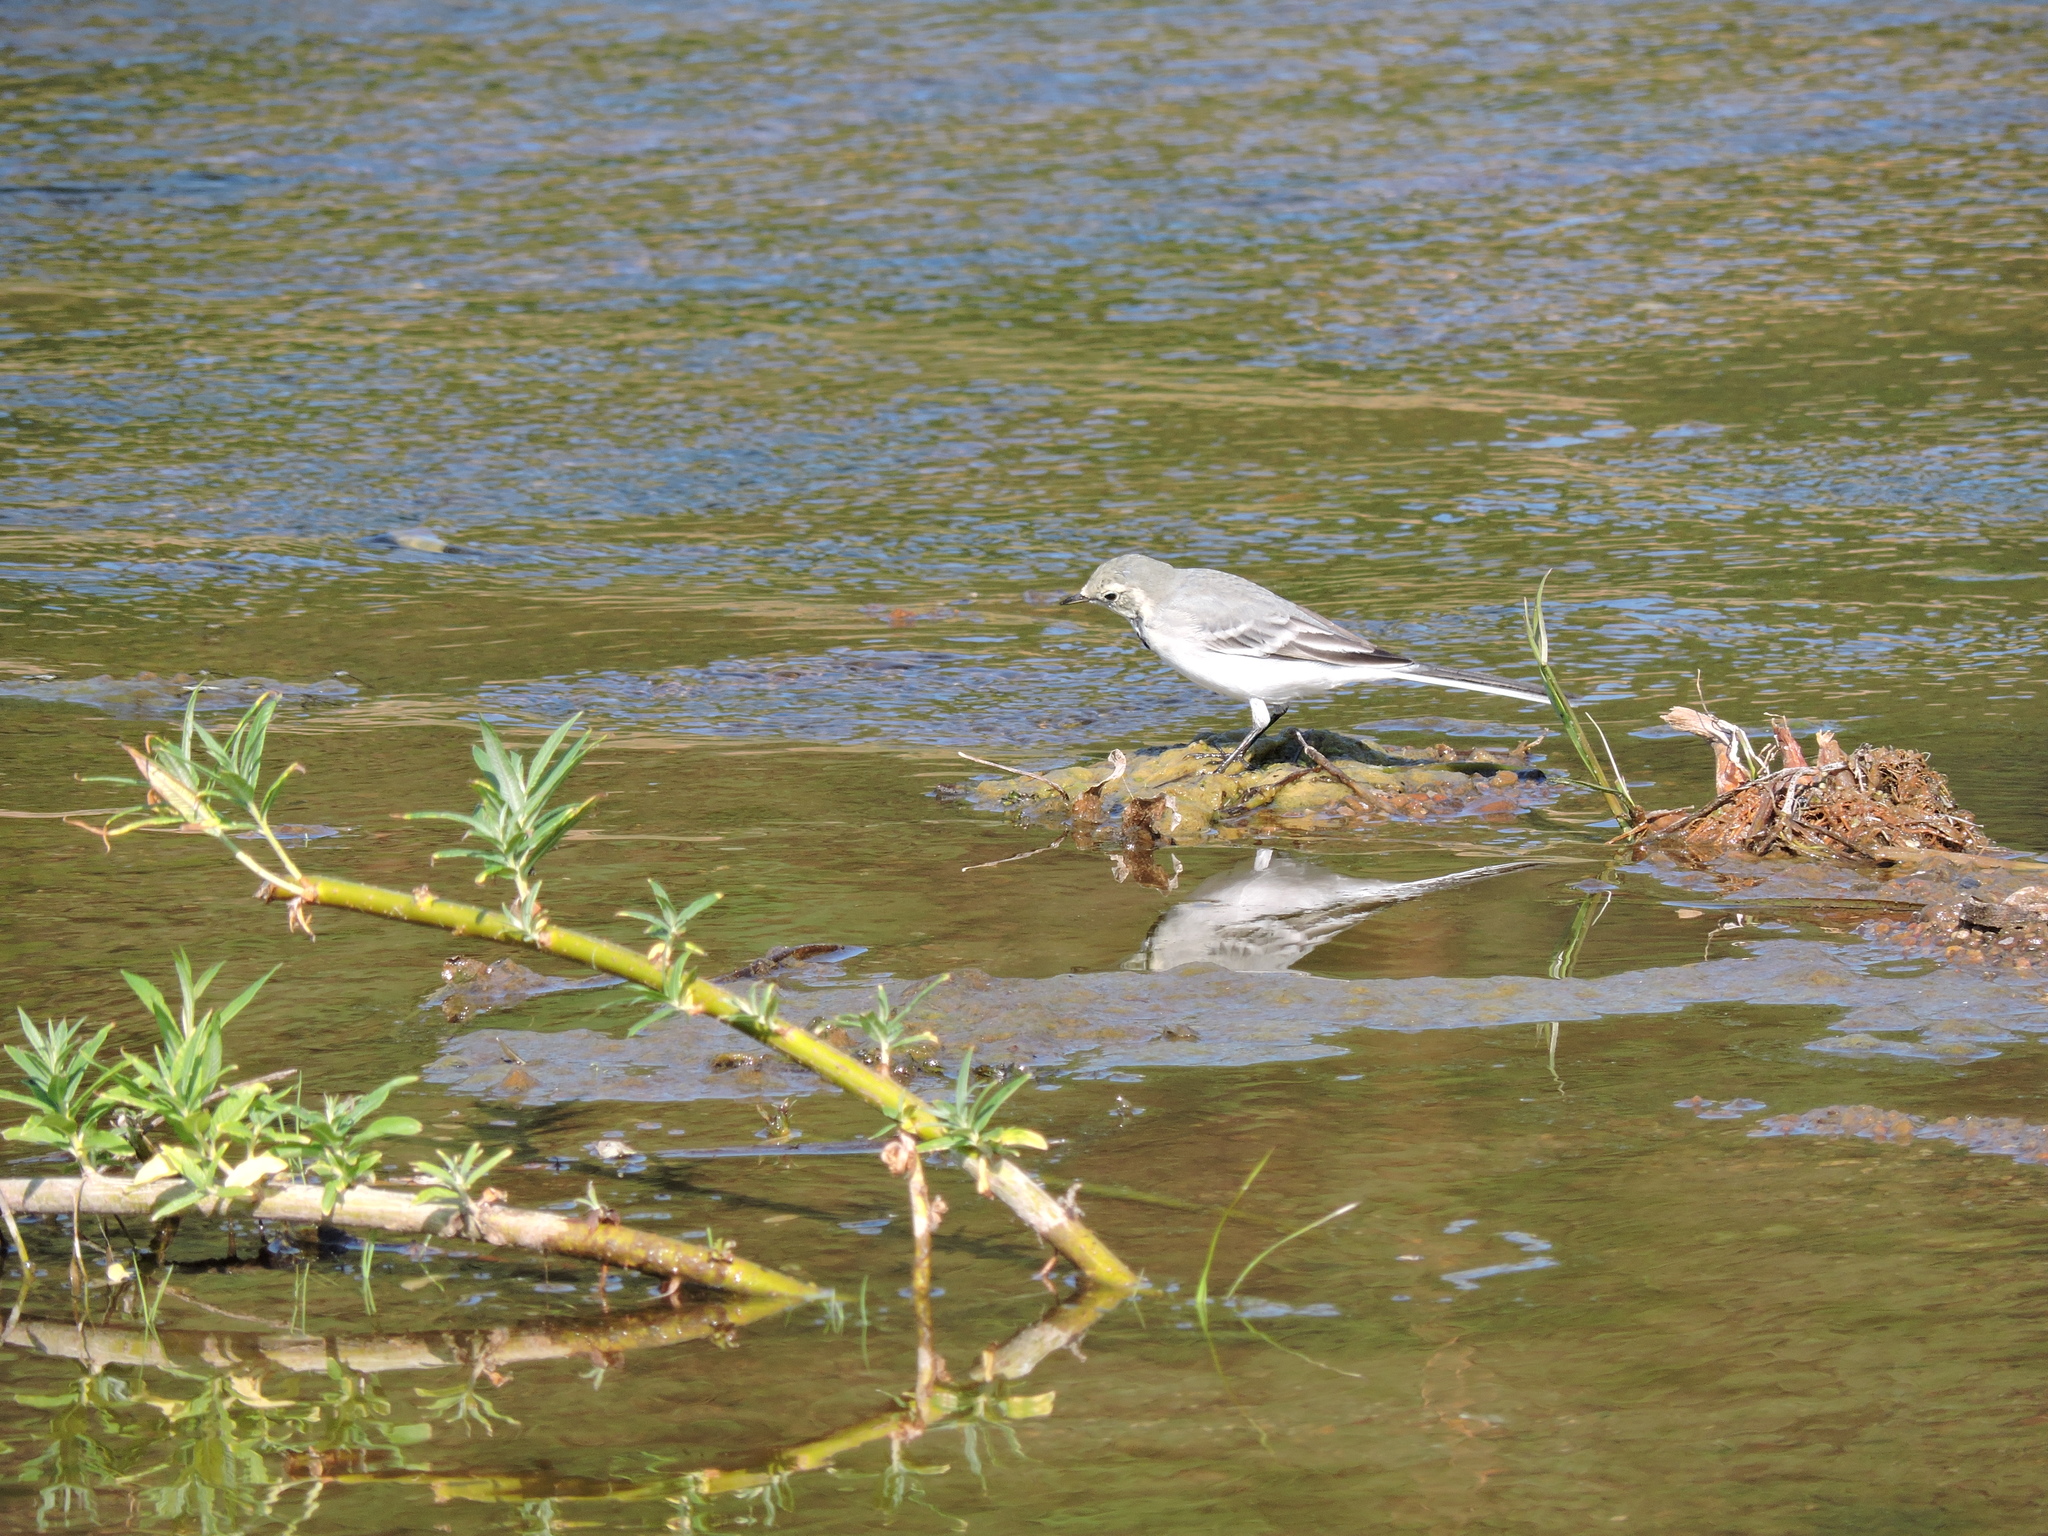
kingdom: Animalia
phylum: Chordata
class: Aves
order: Passeriformes
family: Motacillidae
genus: Motacilla
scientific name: Motacilla alba
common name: White wagtail
